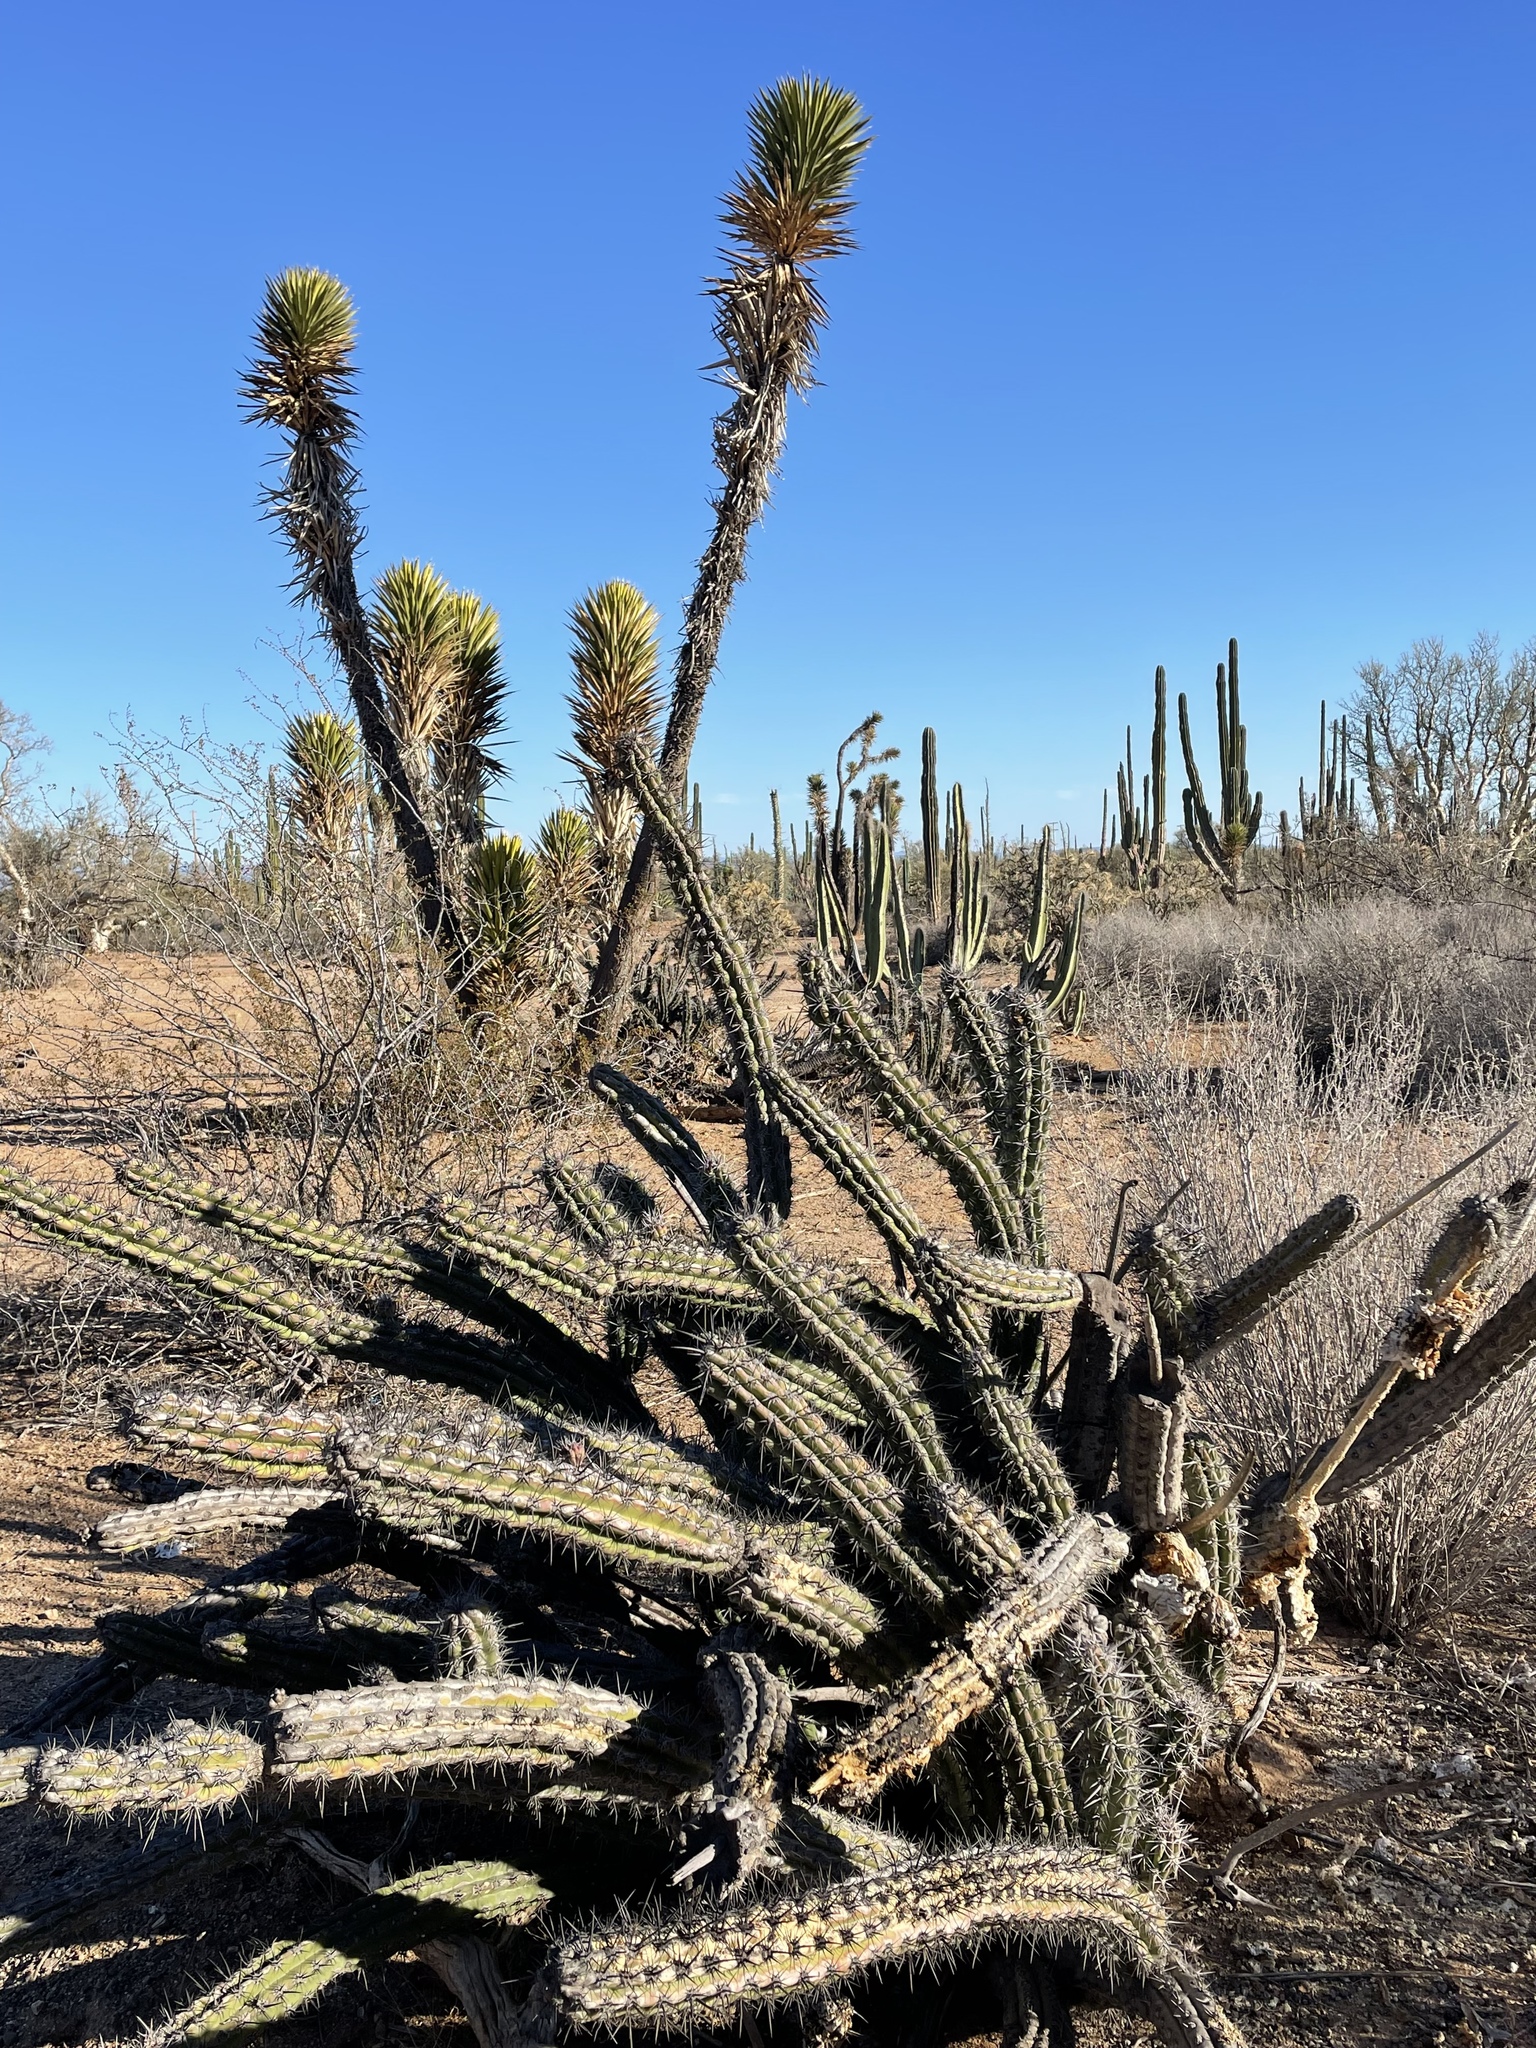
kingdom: Plantae
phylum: Tracheophyta
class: Magnoliopsida
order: Caryophyllales
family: Cactaceae
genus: Stenocereus
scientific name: Stenocereus gummosus
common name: Dagger cactus
